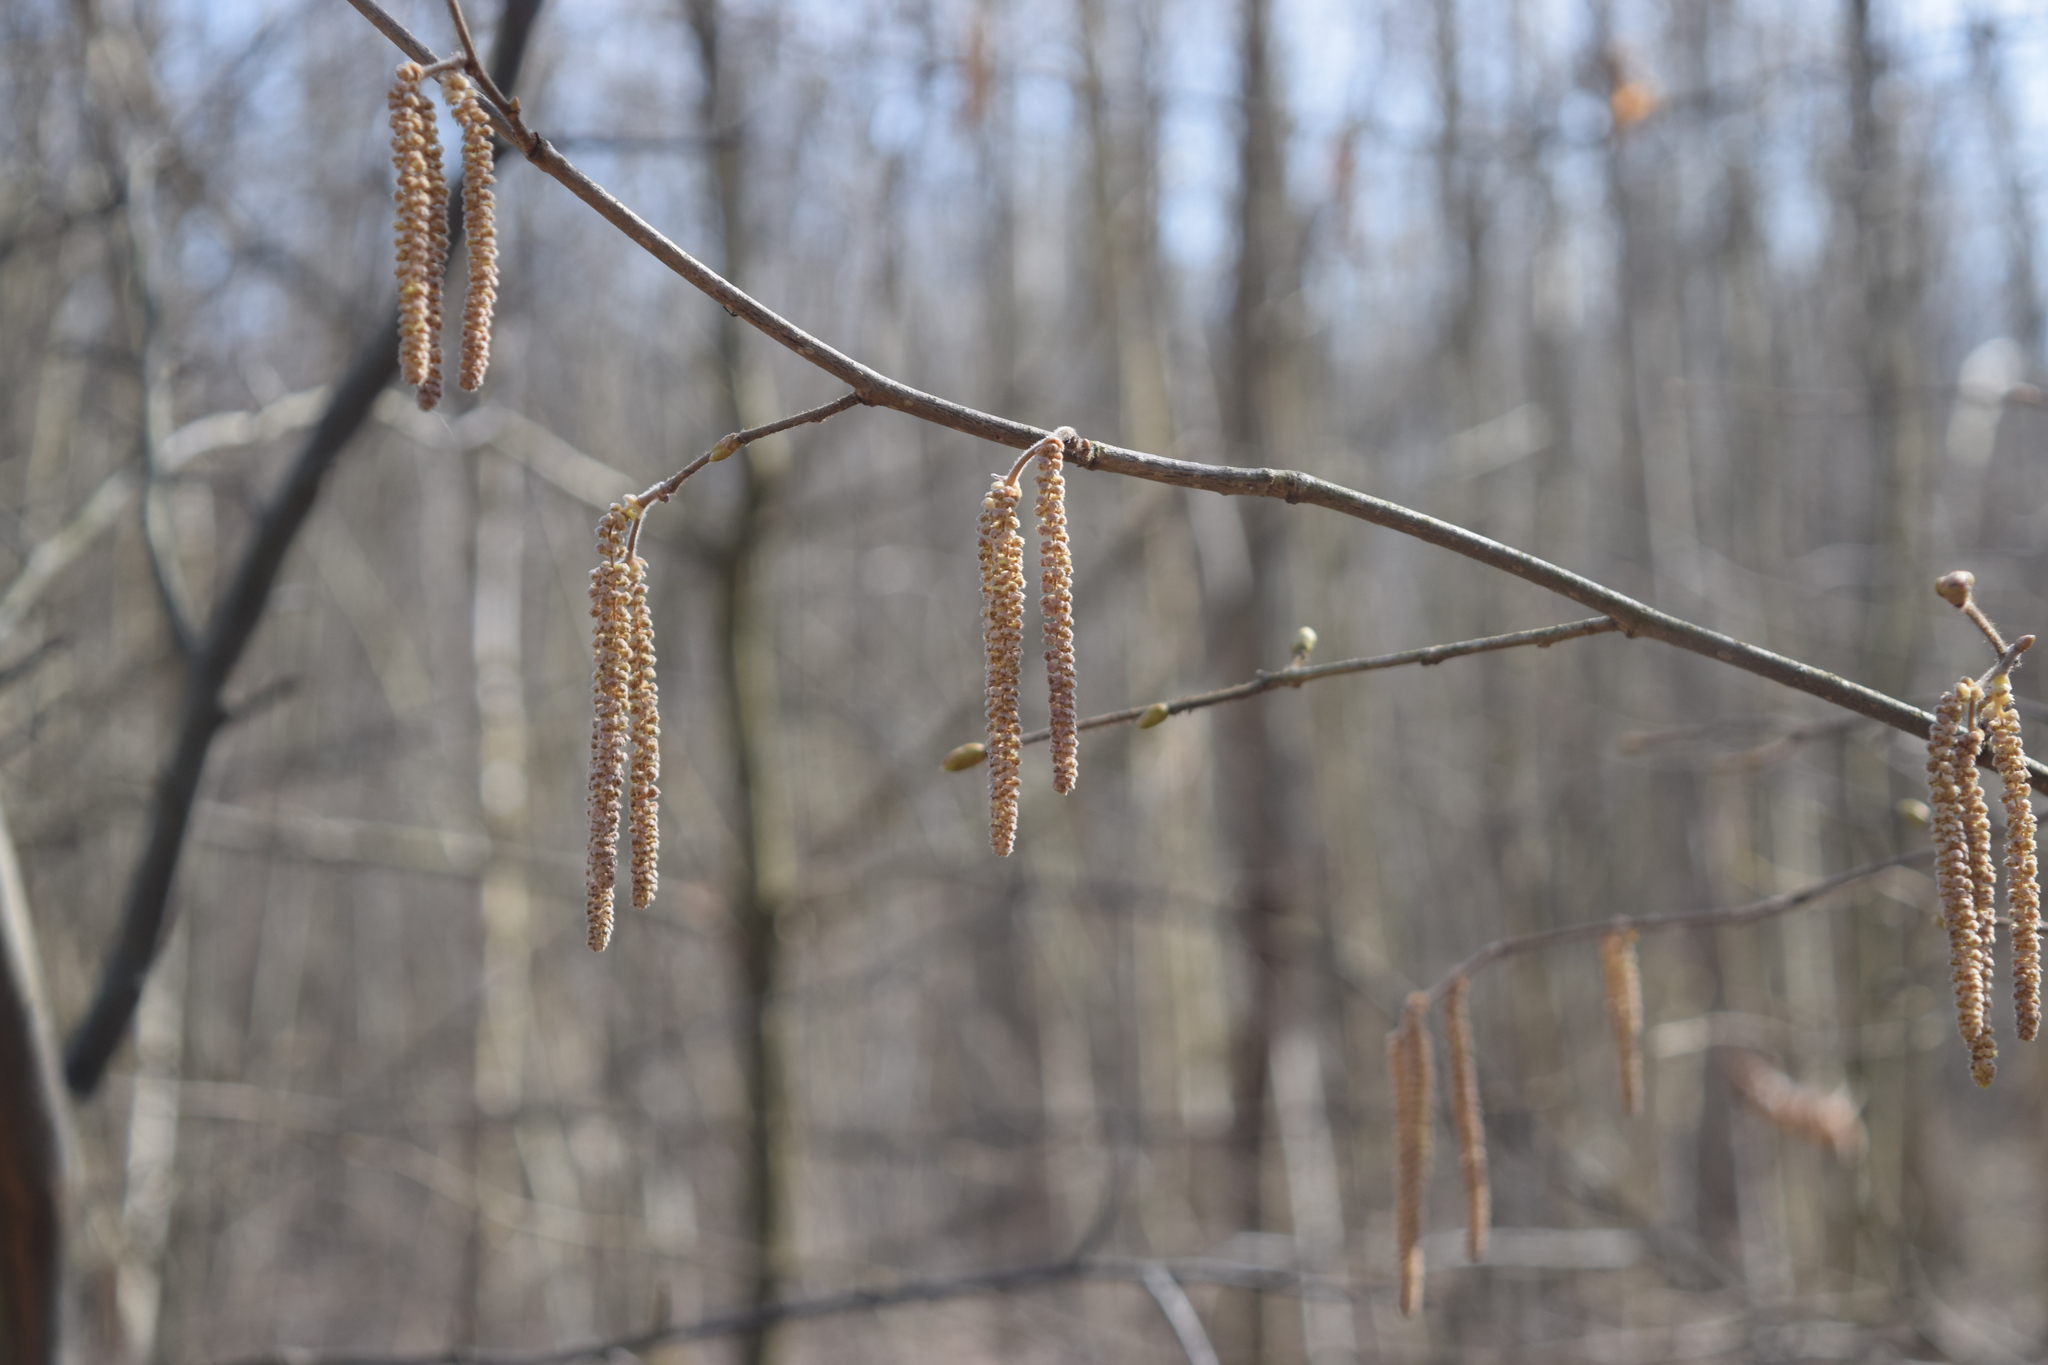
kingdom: Plantae
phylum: Tracheophyta
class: Magnoliopsida
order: Fagales
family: Betulaceae
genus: Corylus
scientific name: Corylus avellana
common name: European hazel
